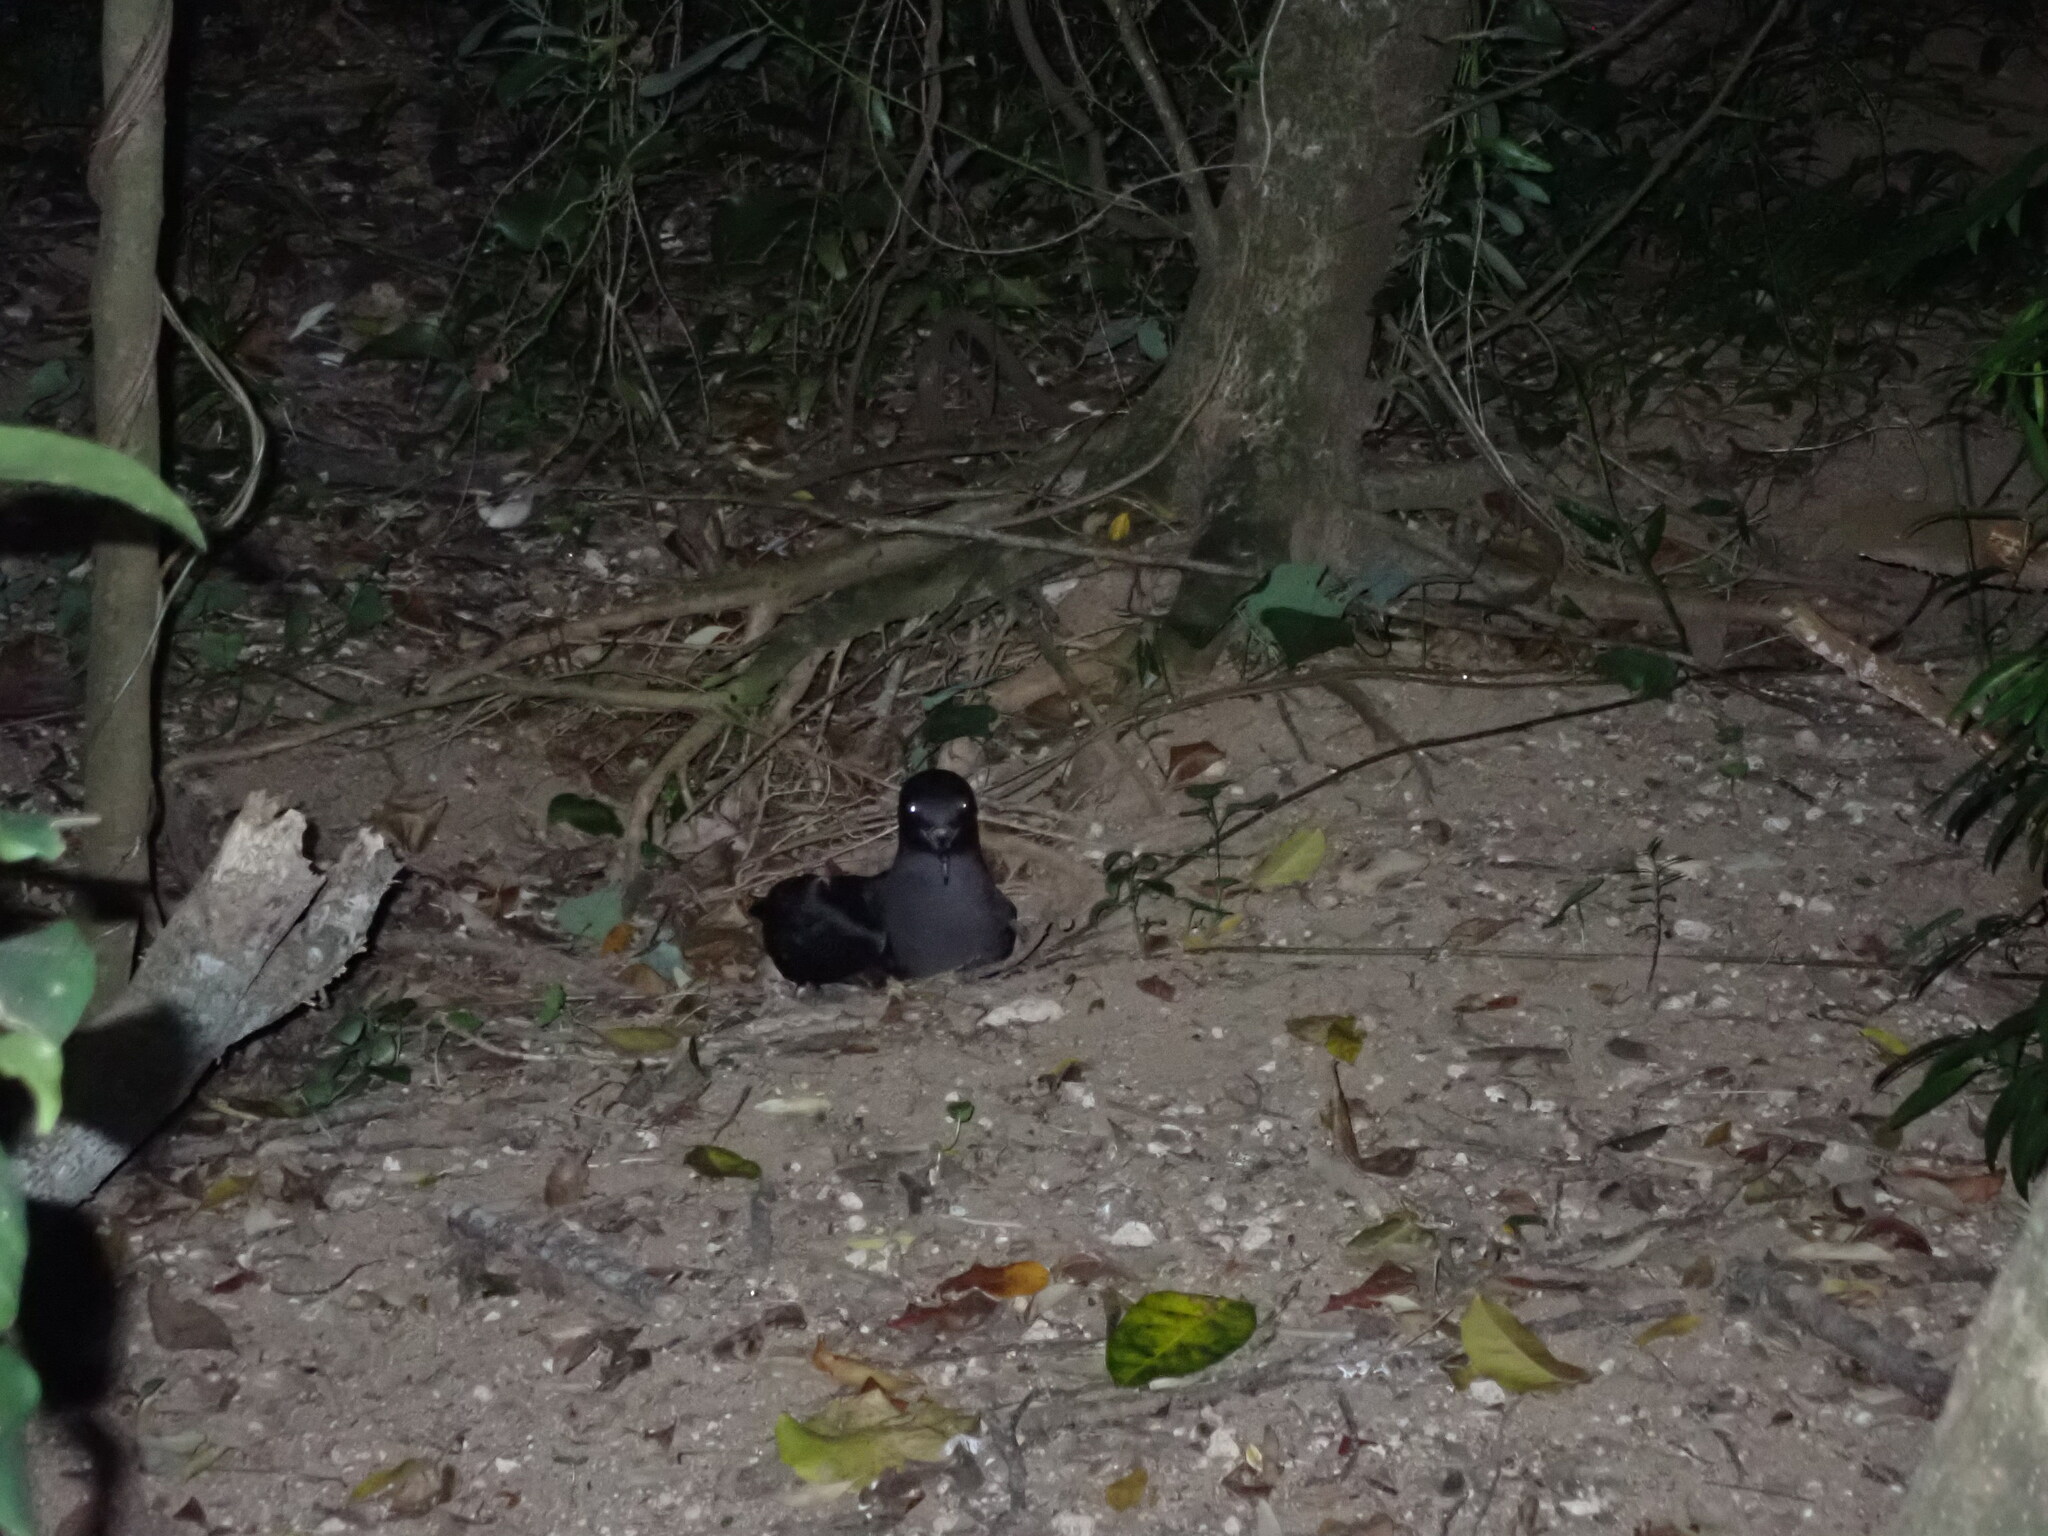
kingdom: Animalia
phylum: Chordata
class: Aves
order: Procellariiformes
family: Procellariidae
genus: Puffinus
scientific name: Puffinus carneipes
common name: Flesh-footed shearwater
